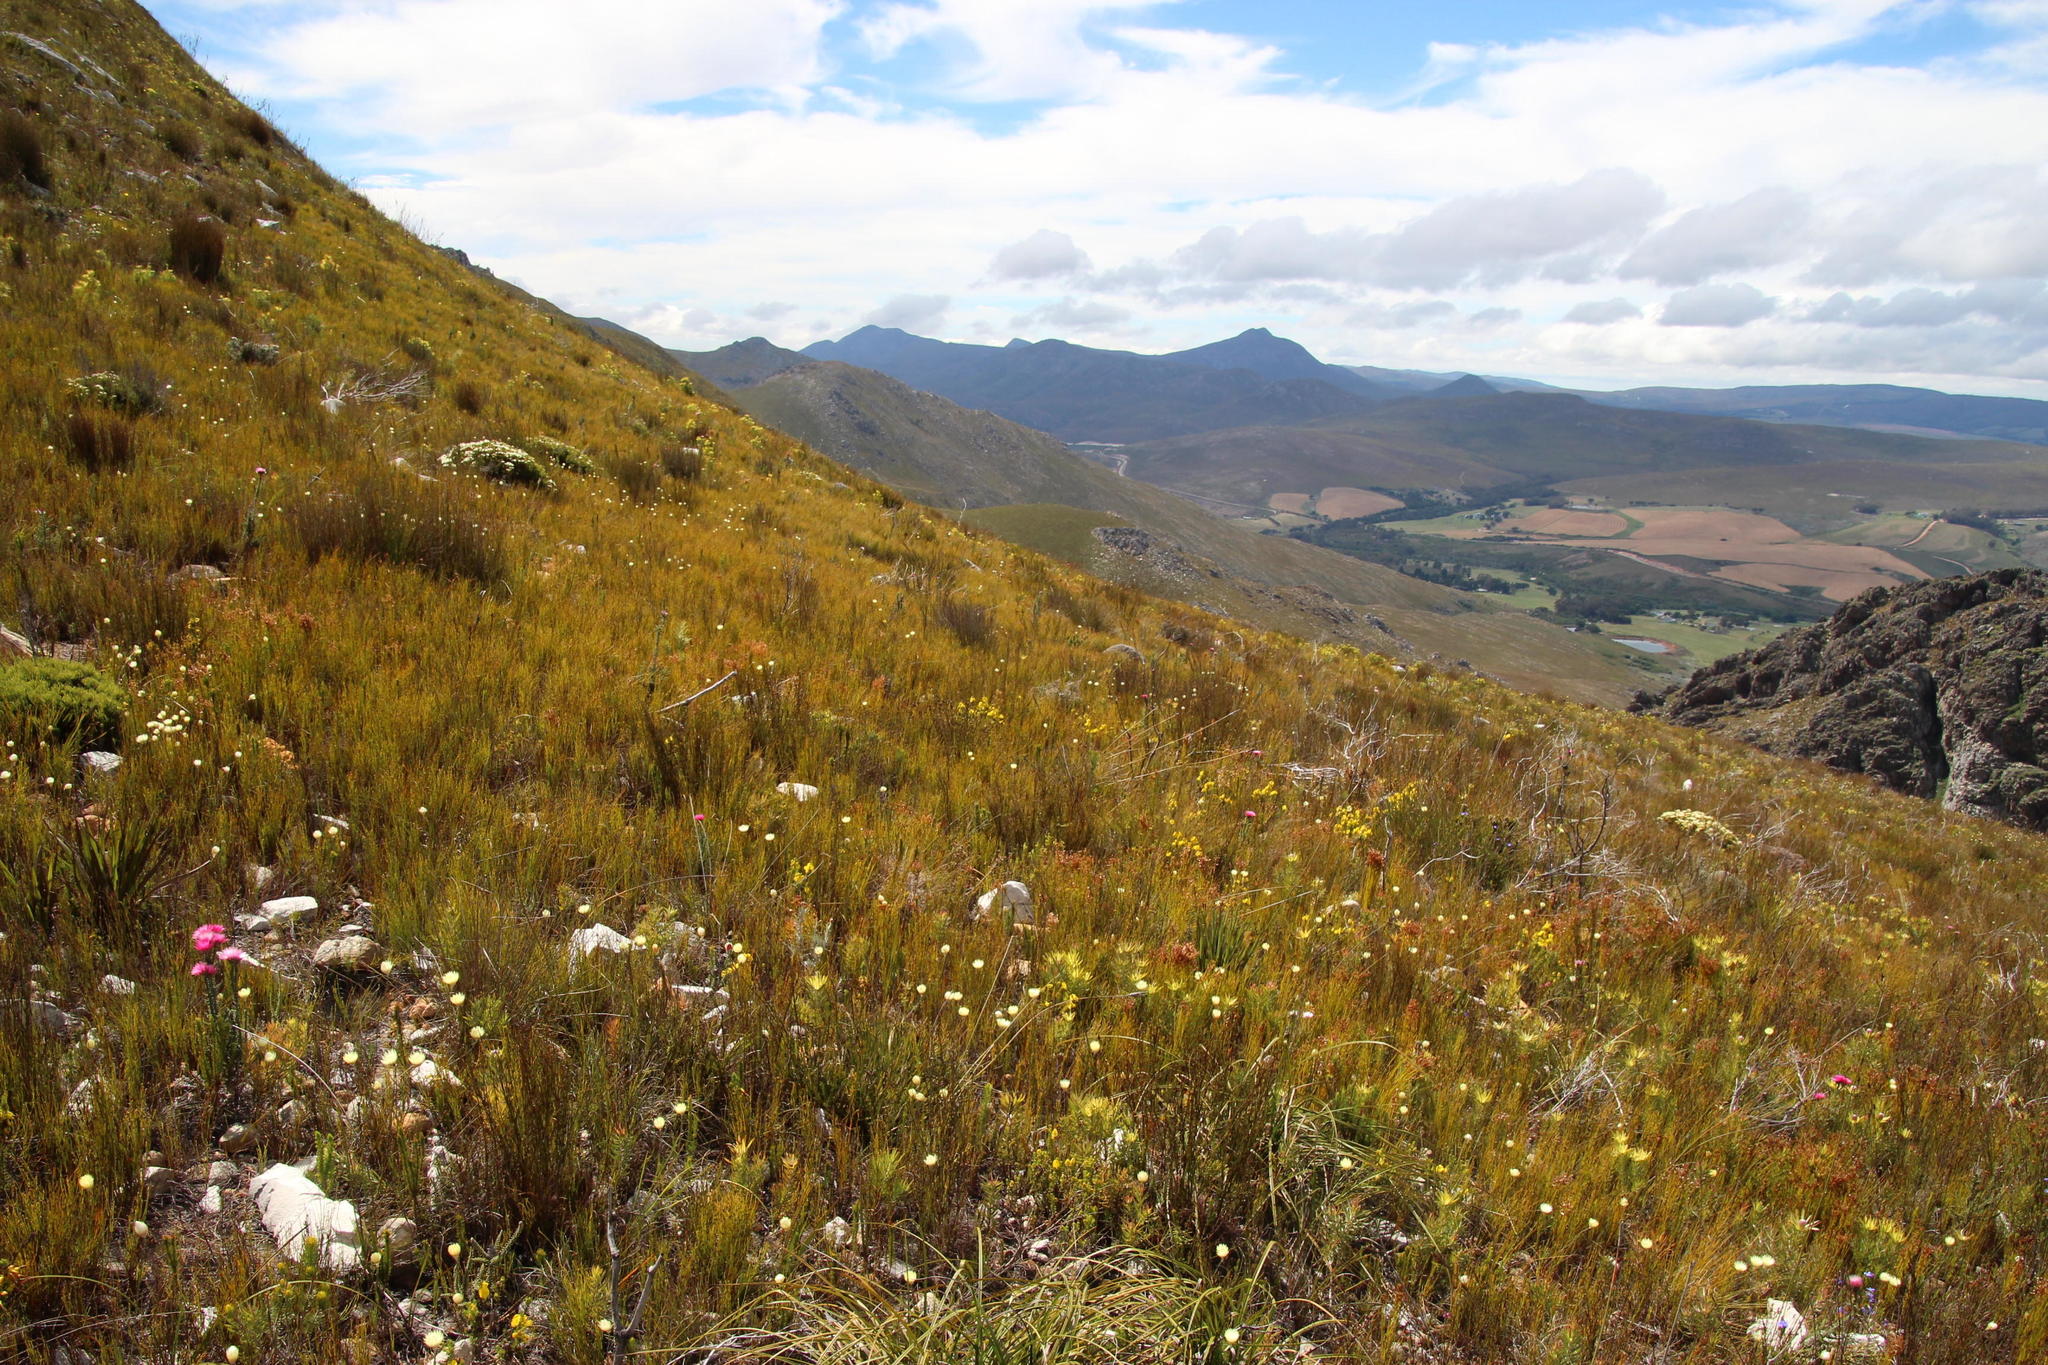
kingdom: Plantae
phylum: Tracheophyta
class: Magnoliopsida
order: Fabales
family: Fabaceae
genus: Aspalathus
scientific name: Aspalathus citrina
